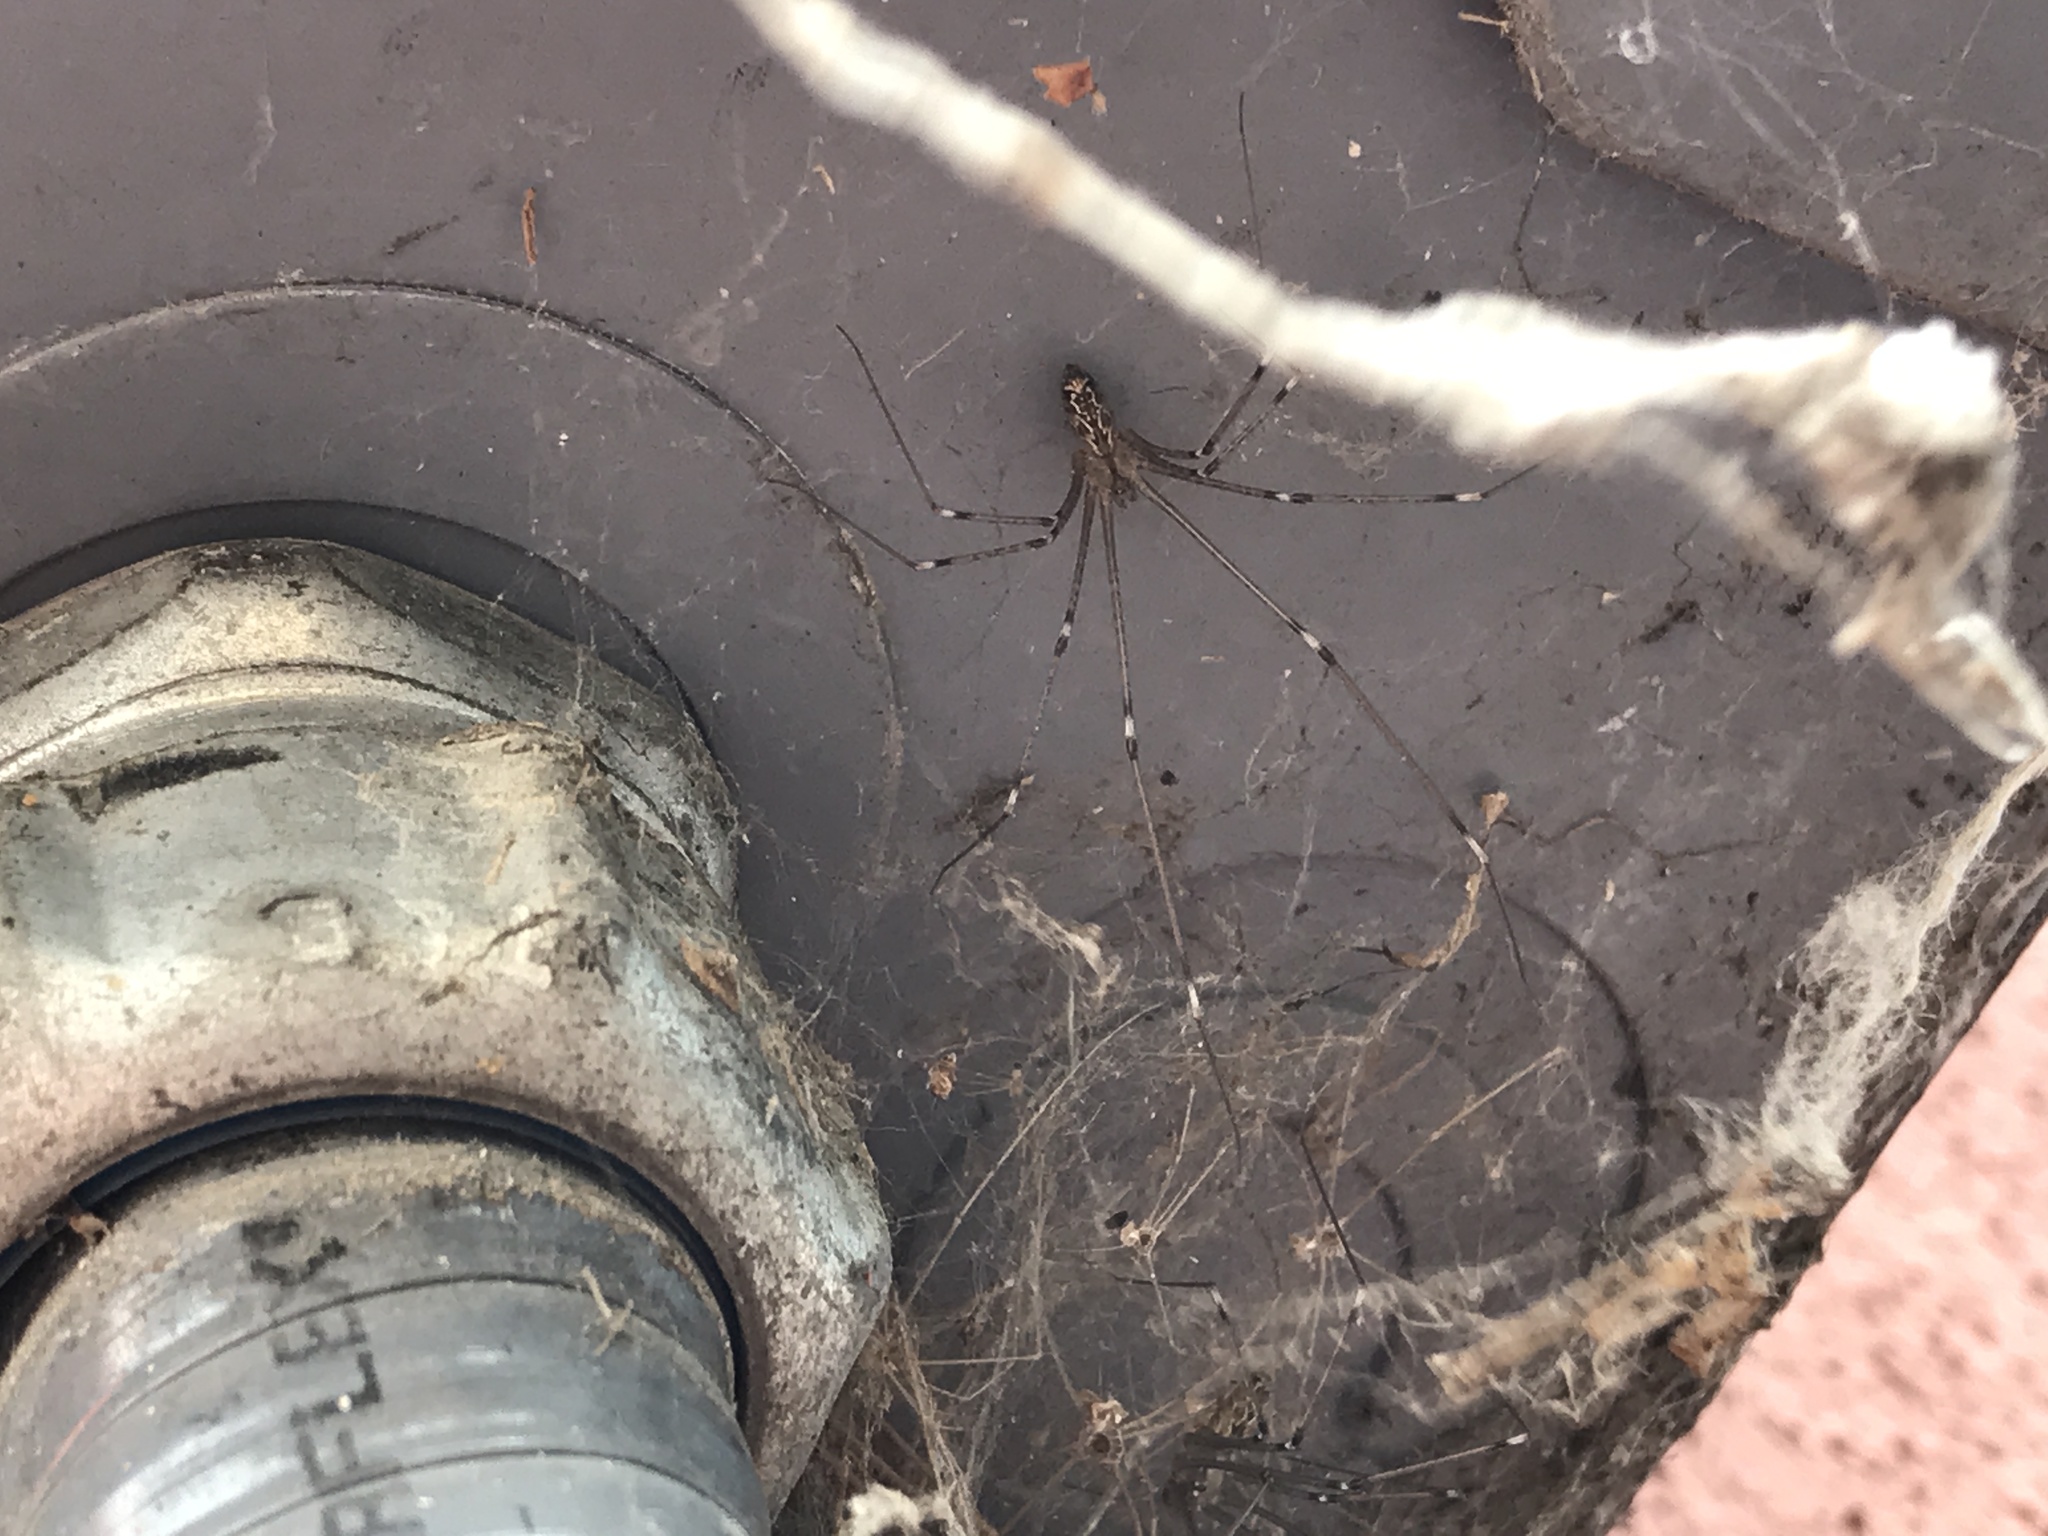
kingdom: Animalia
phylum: Arthropoda
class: Arachnida
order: Araneae
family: Pholcidae
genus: Holocnemus
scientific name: Holocnemus pluchei
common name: Marbled cellar spider
